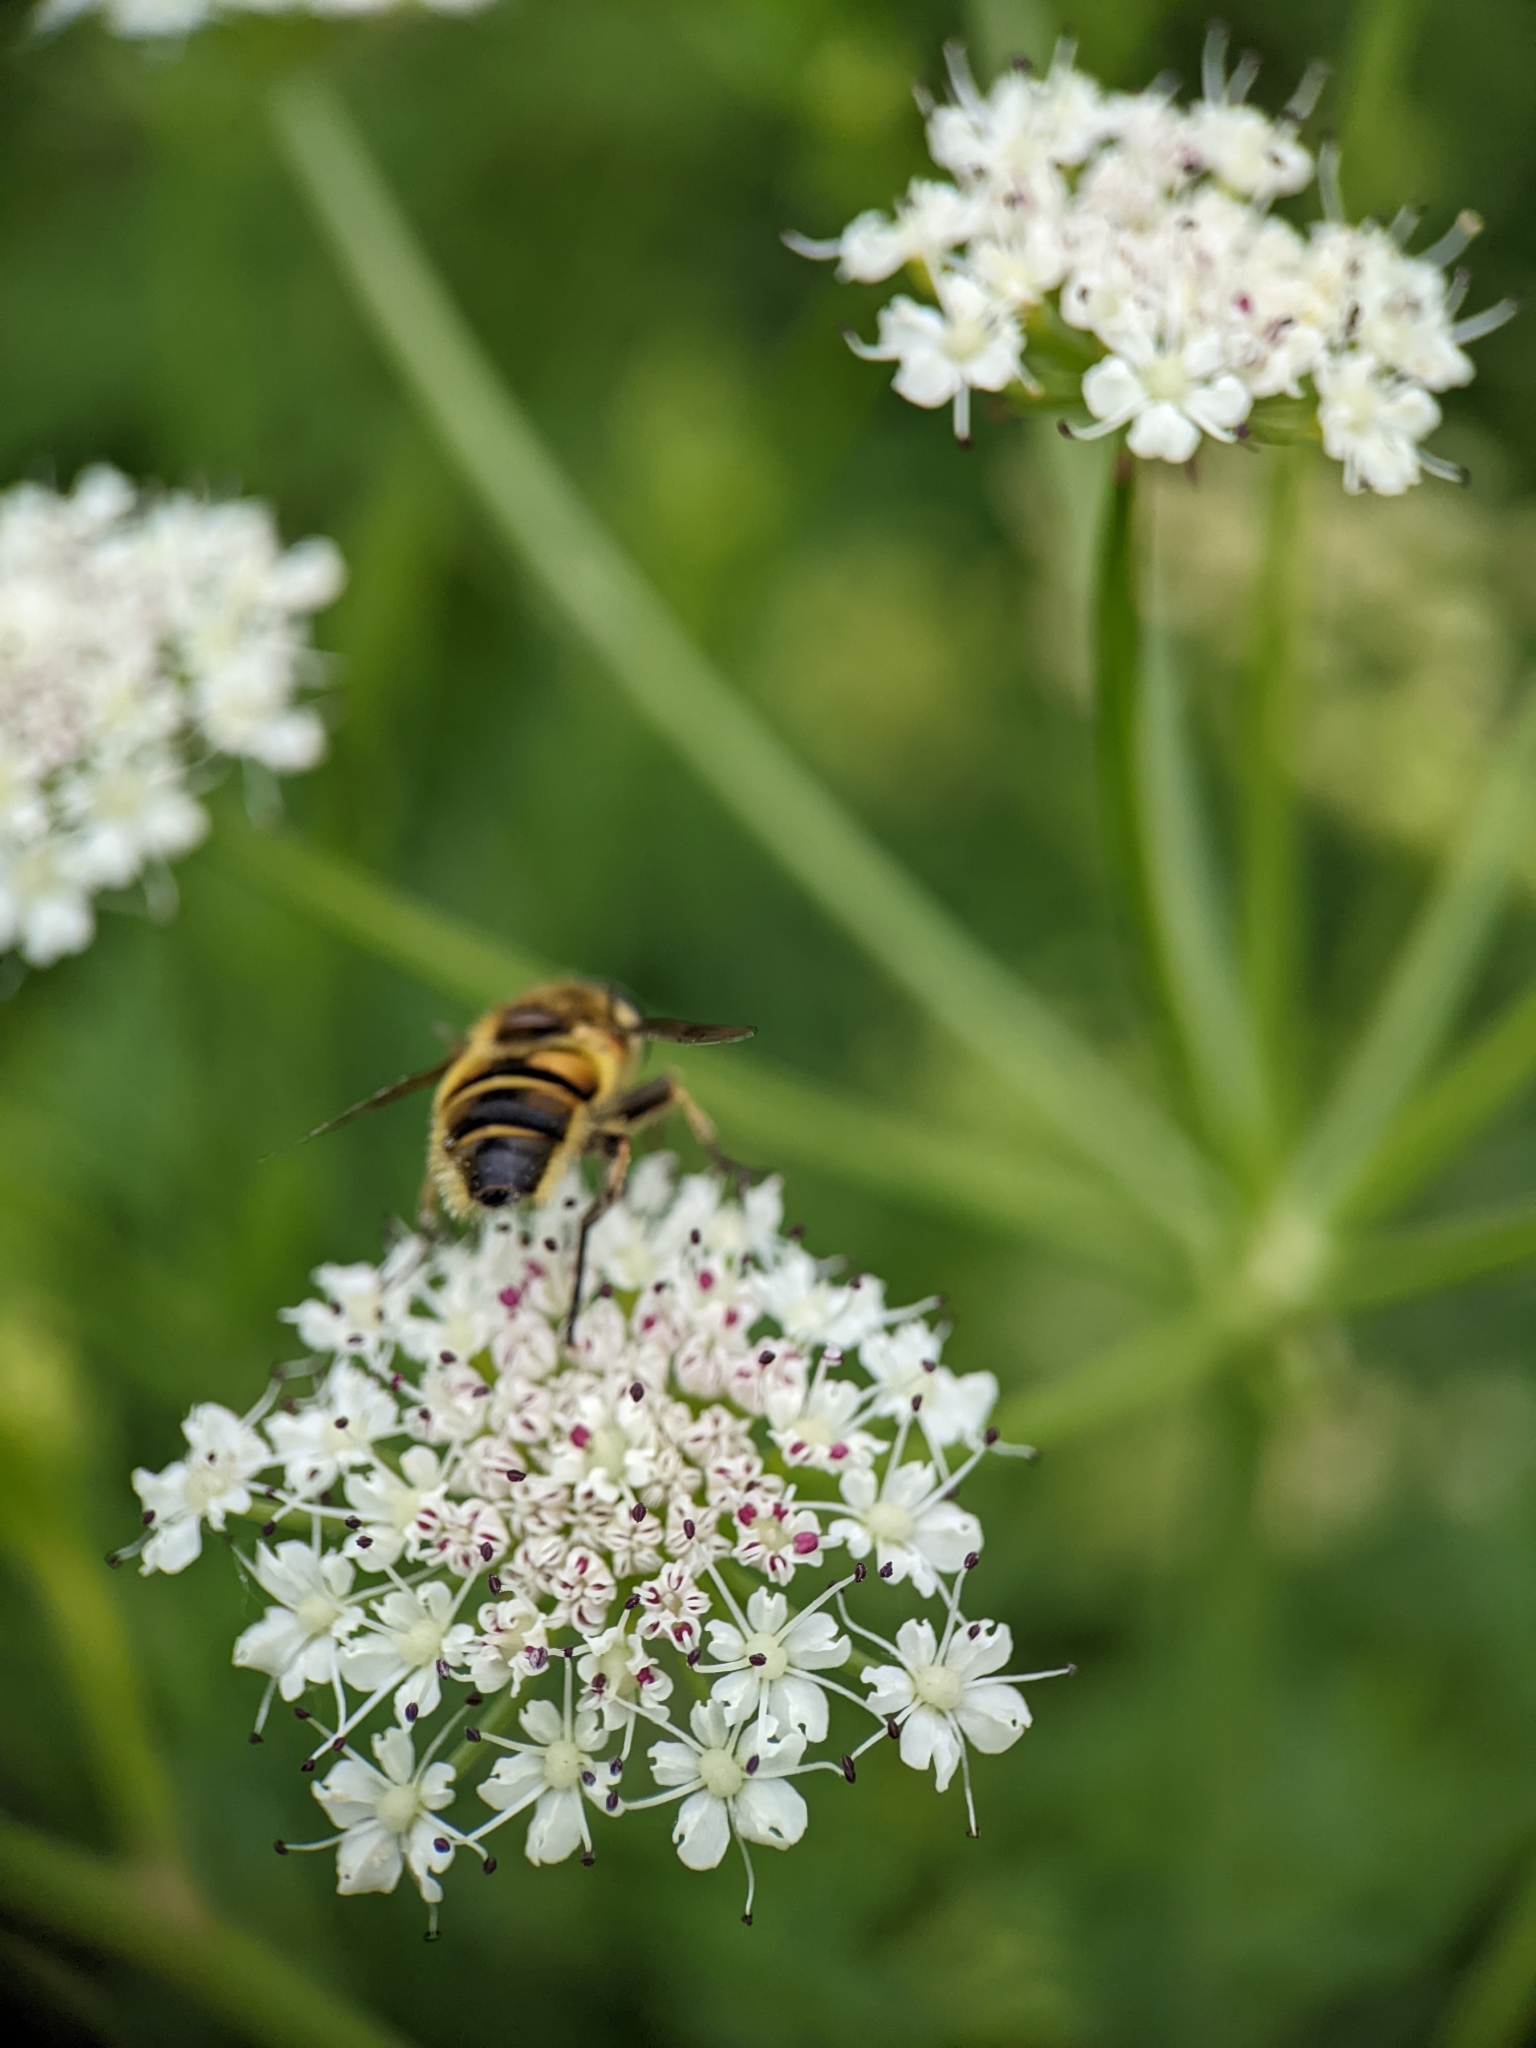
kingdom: Animalia
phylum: Arthropoda
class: Insecta
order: Diptera
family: Syrphidae
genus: Myathropa
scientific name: Myathropa florea
